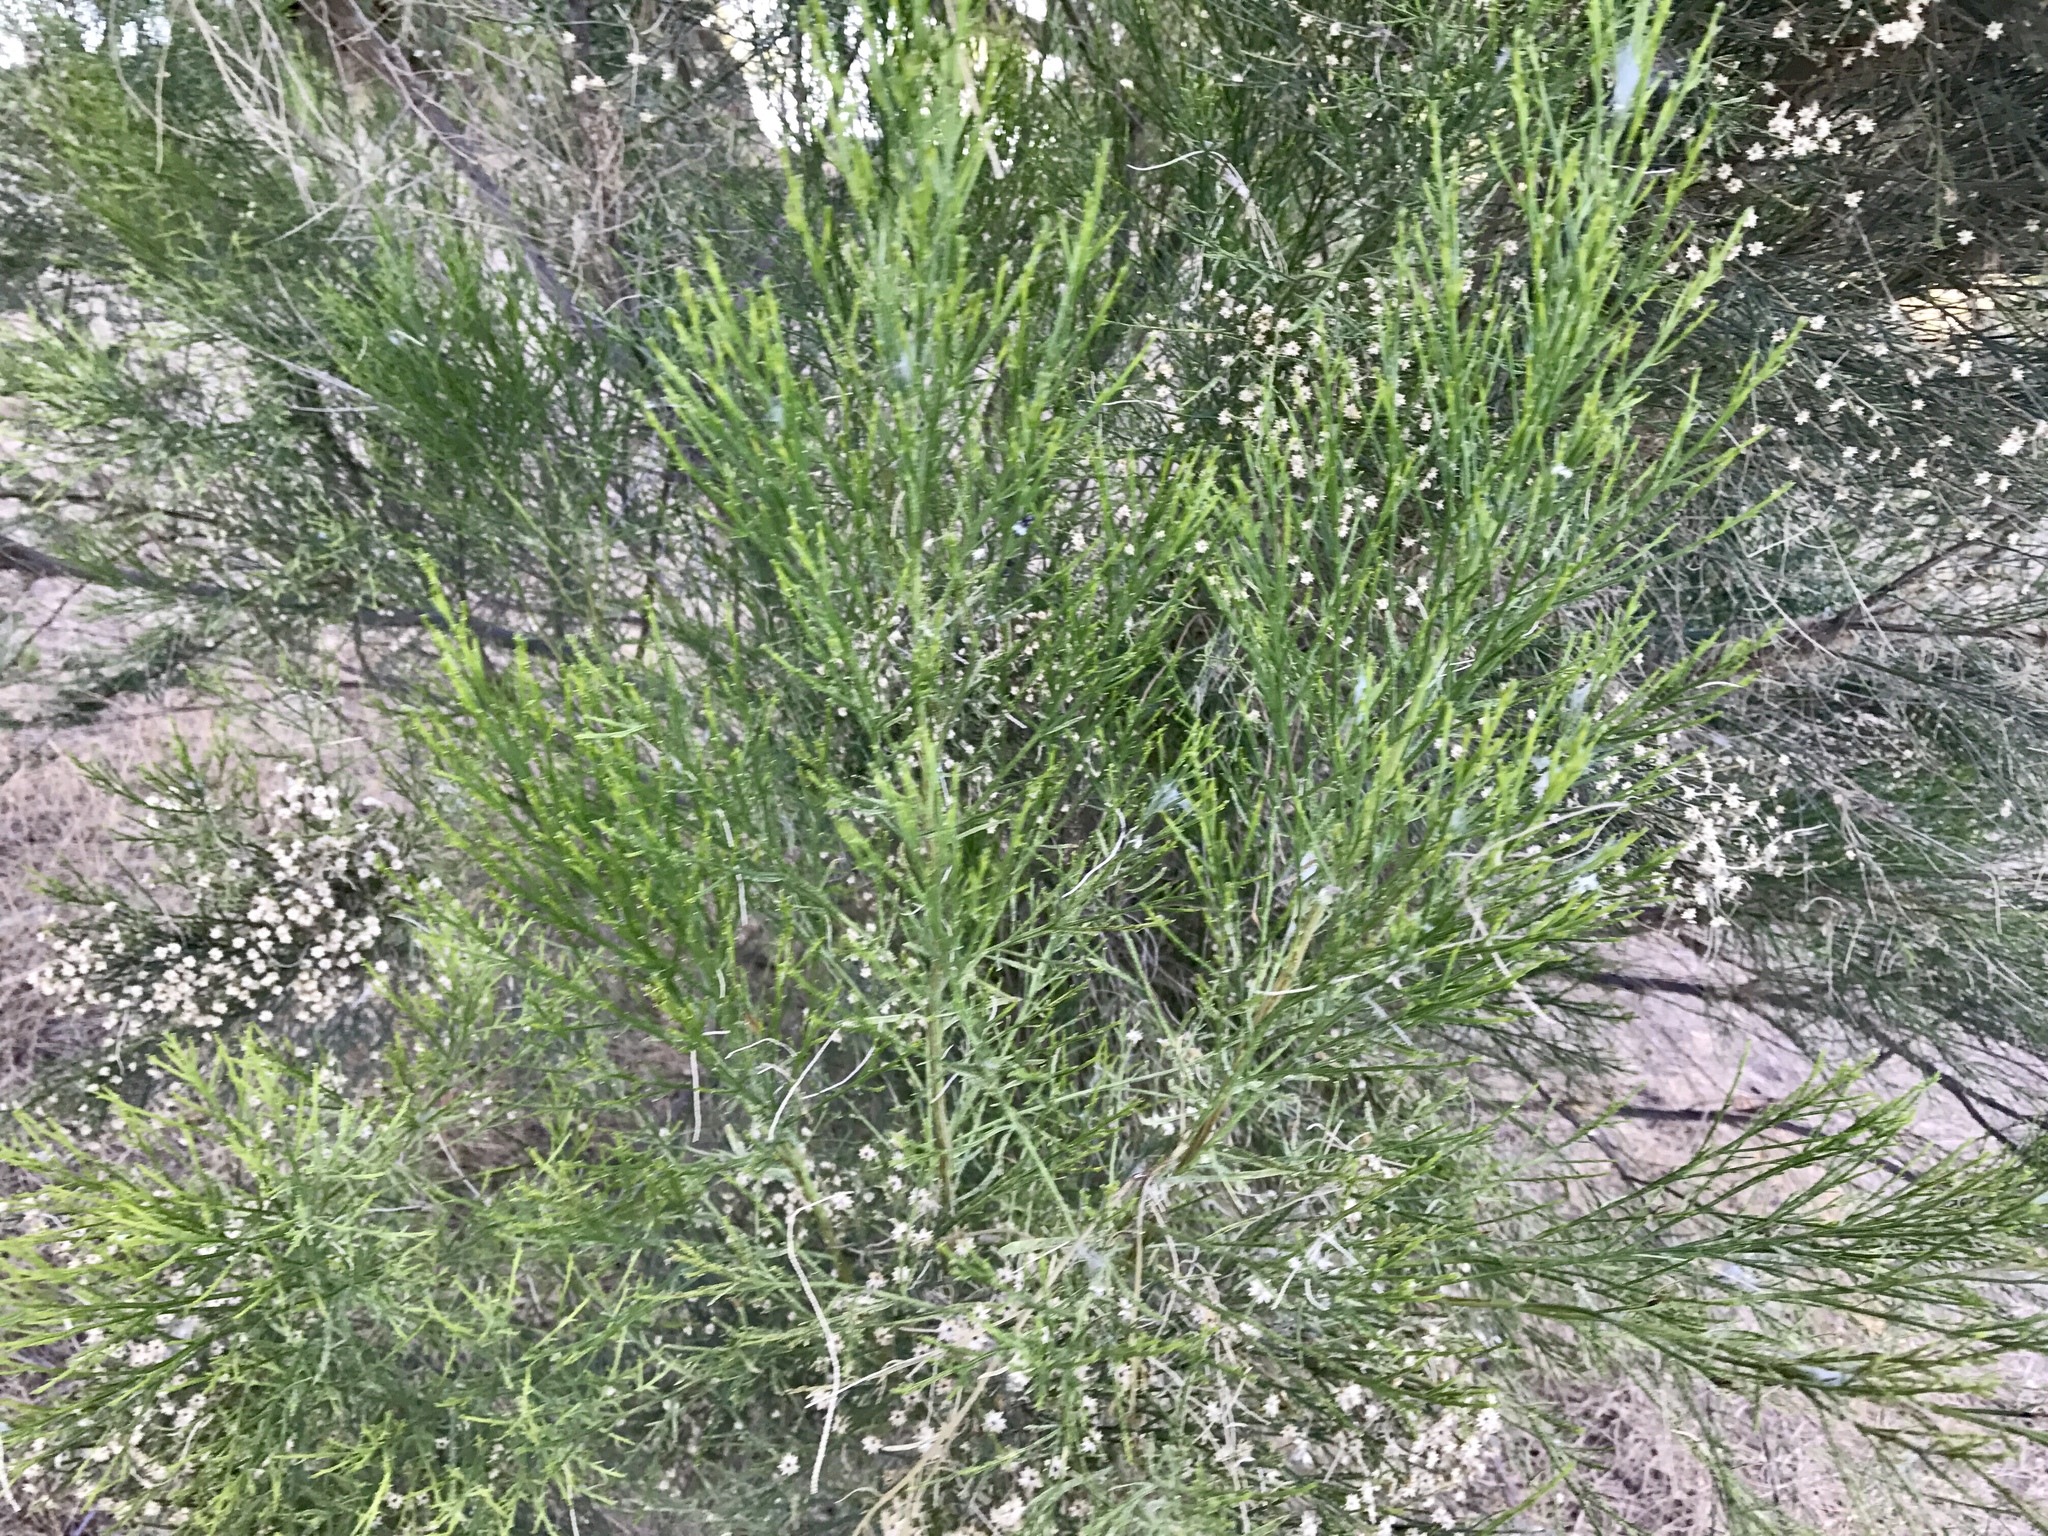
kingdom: Plantae
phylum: Tracheophyta
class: Magnoliopsida
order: Asterales
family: Asteraceae
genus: Baccharis
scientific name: Baccharis sarothroides
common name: Desert-broom
